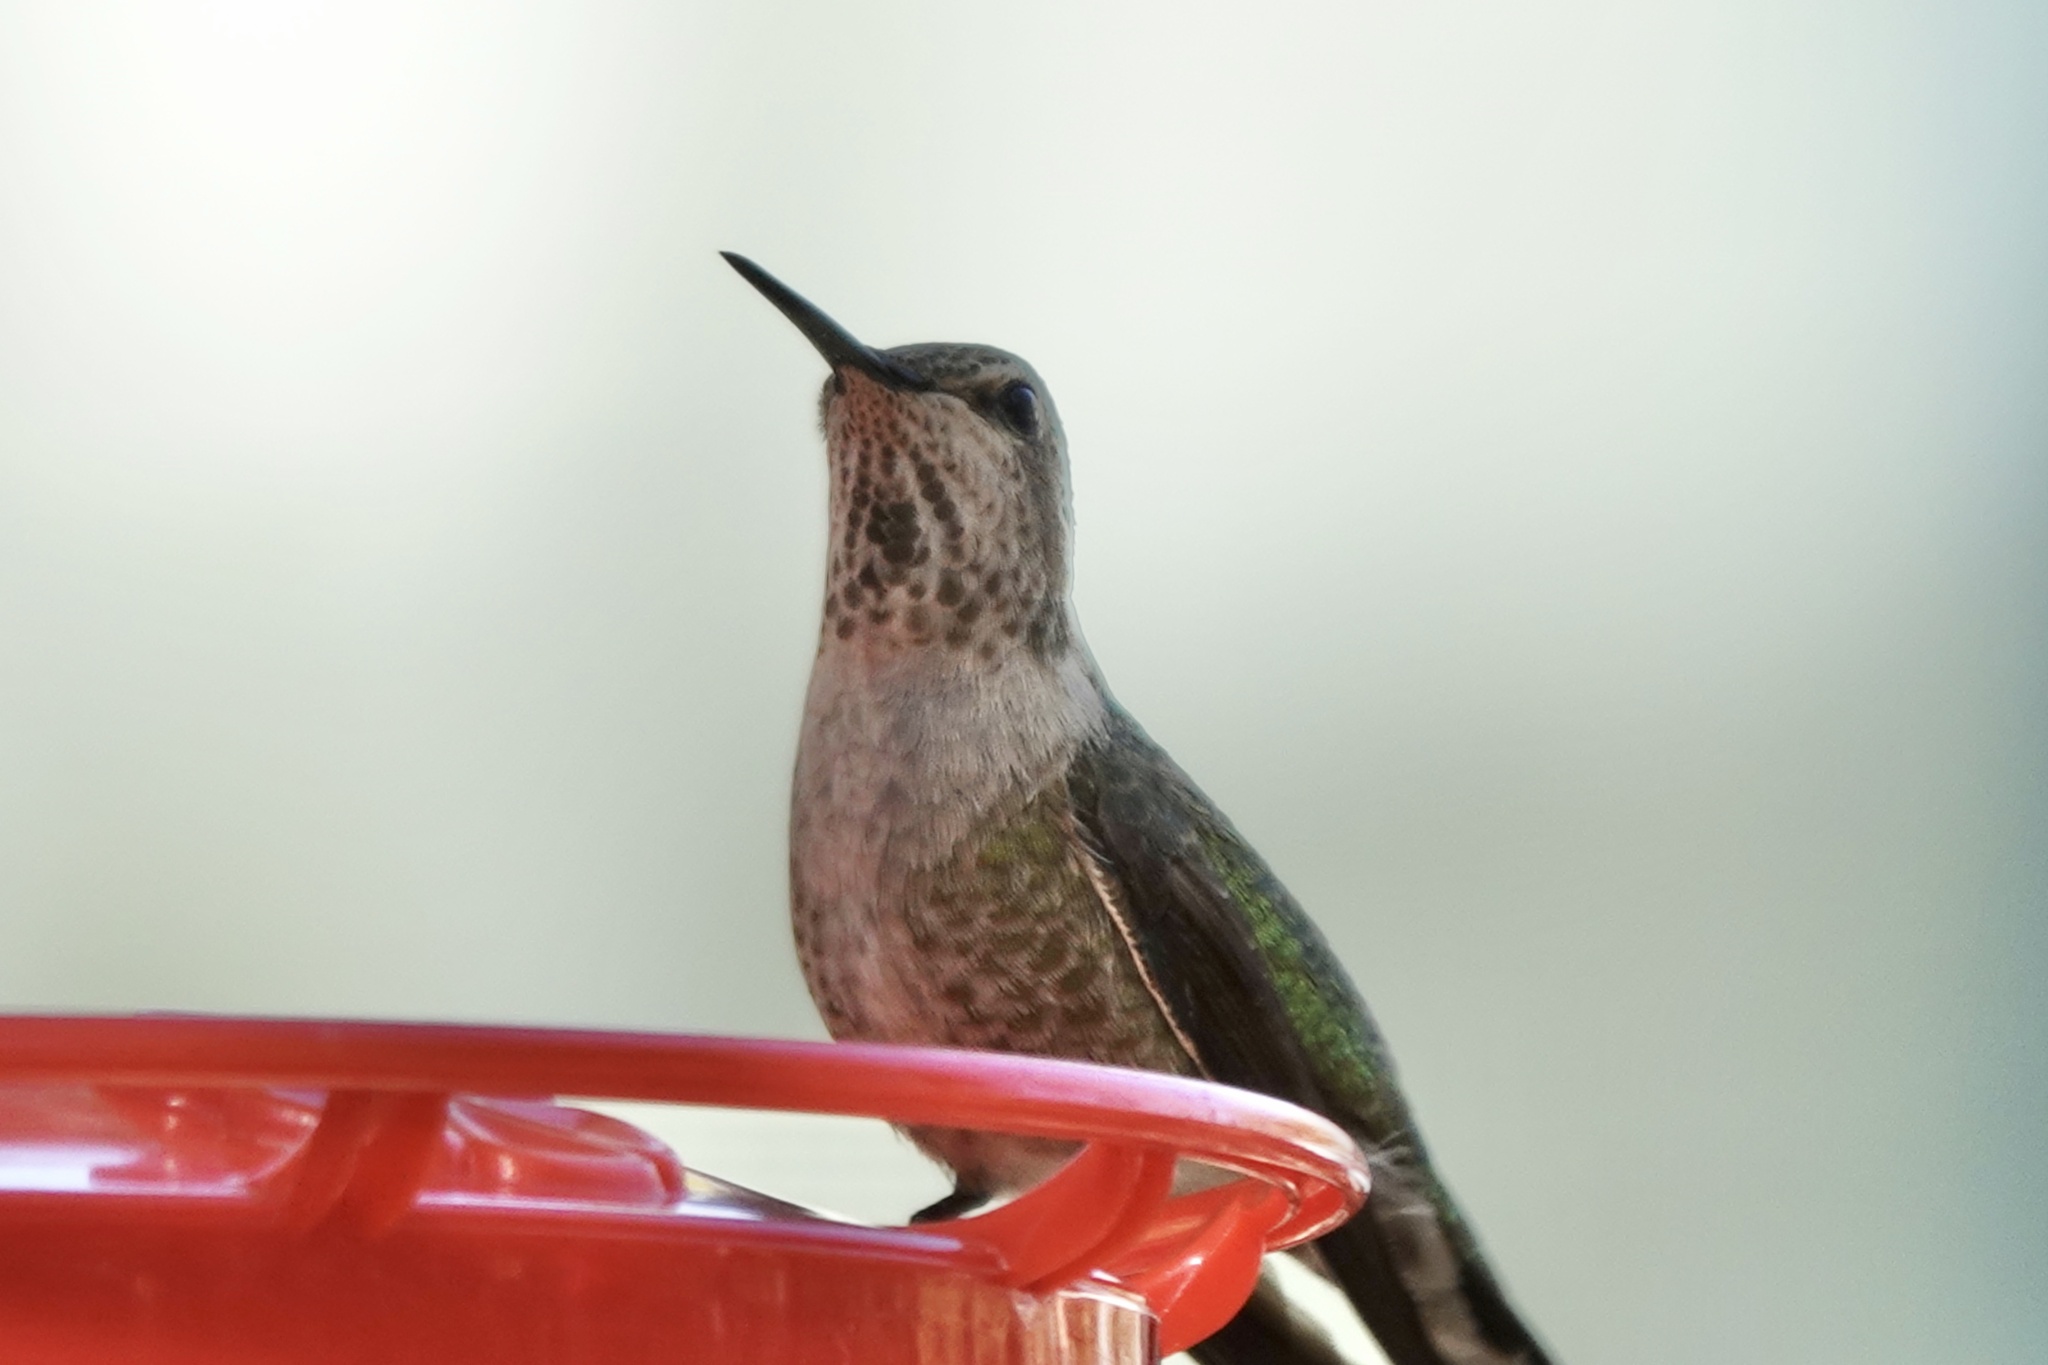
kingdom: Animalia
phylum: Chordata
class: Aves
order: Apodiformes
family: Trochilidae
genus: Calypte
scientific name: Calypte anna
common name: Anna's hummingbird
